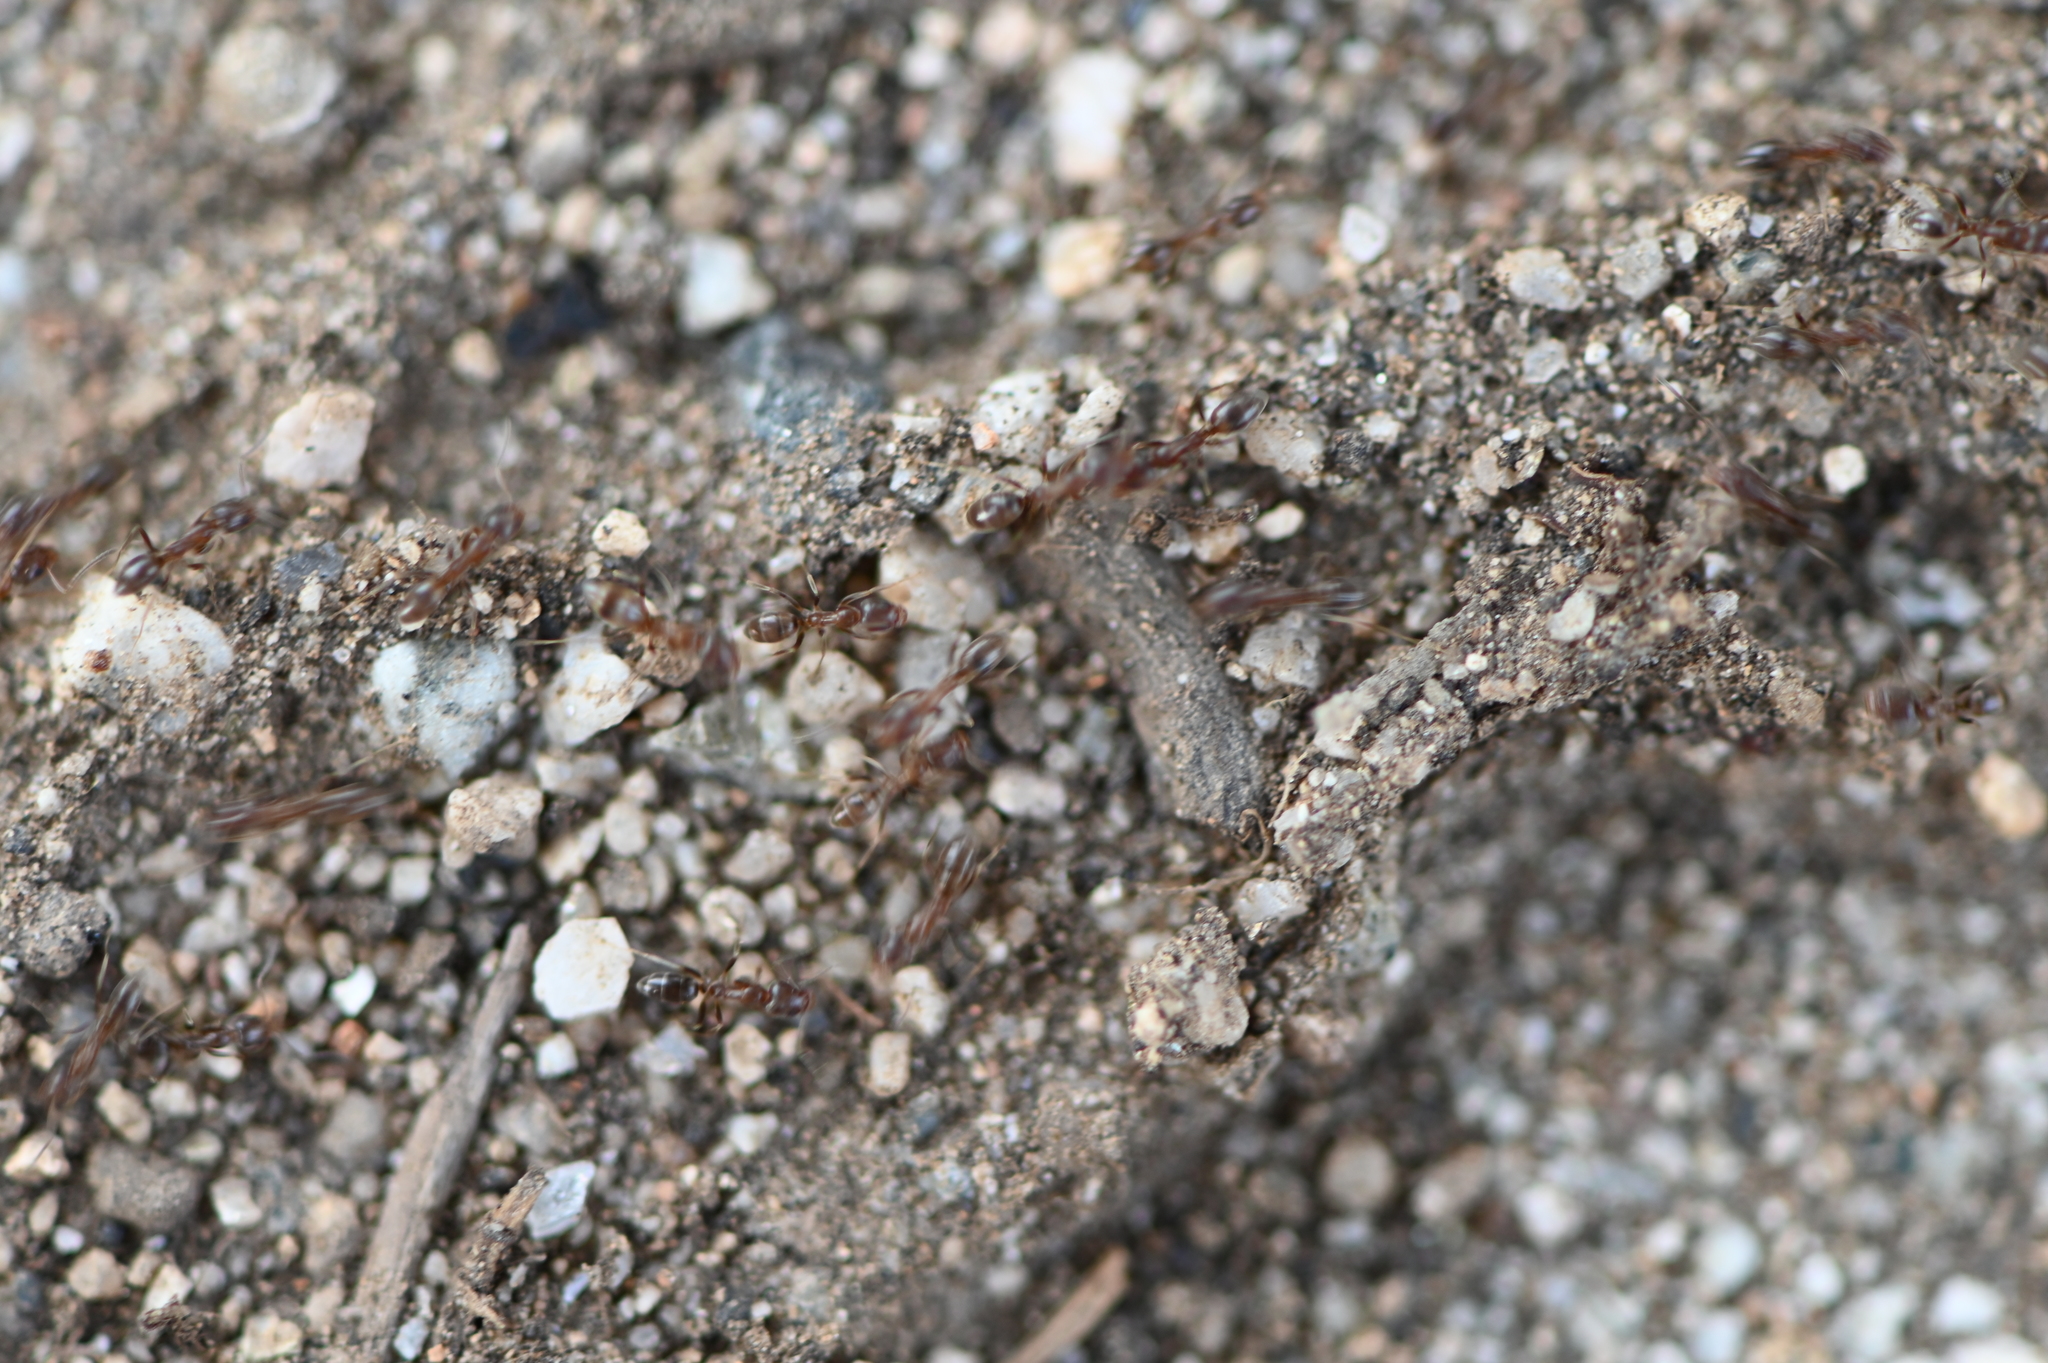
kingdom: Animalia
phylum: Arthropoda
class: Insecta
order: Hymenoptera
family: Formicidae
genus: Linepithema
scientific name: Linepithema humile
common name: Argentine ant
